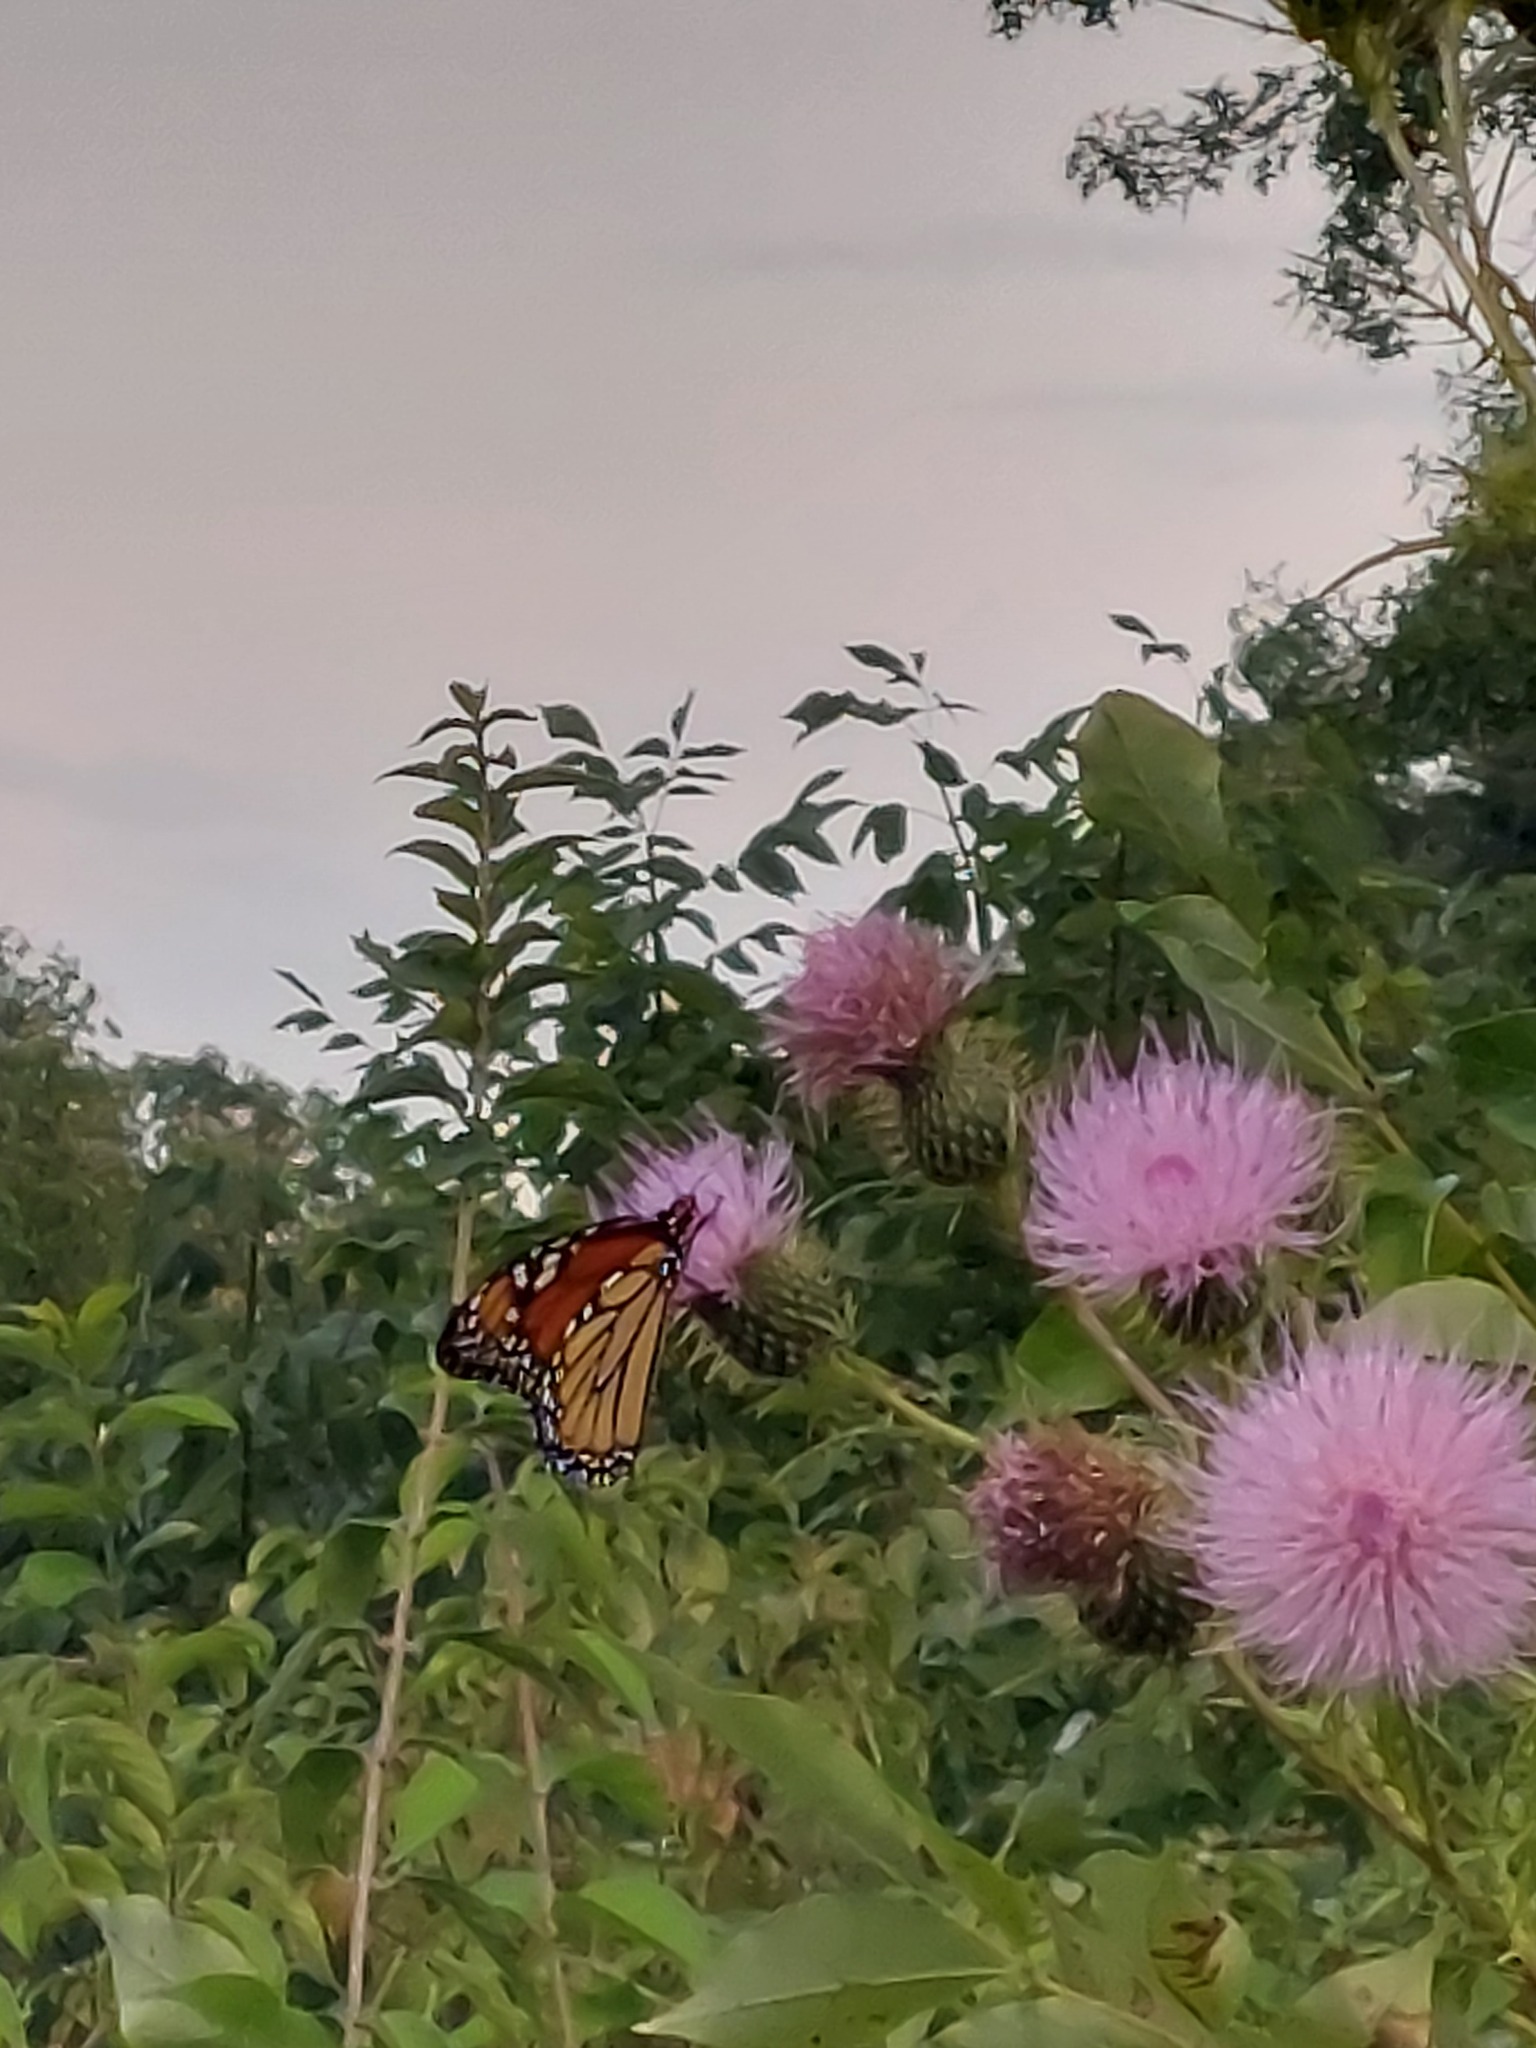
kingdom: Animalia
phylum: Arthropoda
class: Insecta
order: Lepidoptera
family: Nymphalidae
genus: Danaus
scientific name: Danaus plexippus
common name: Monarch
